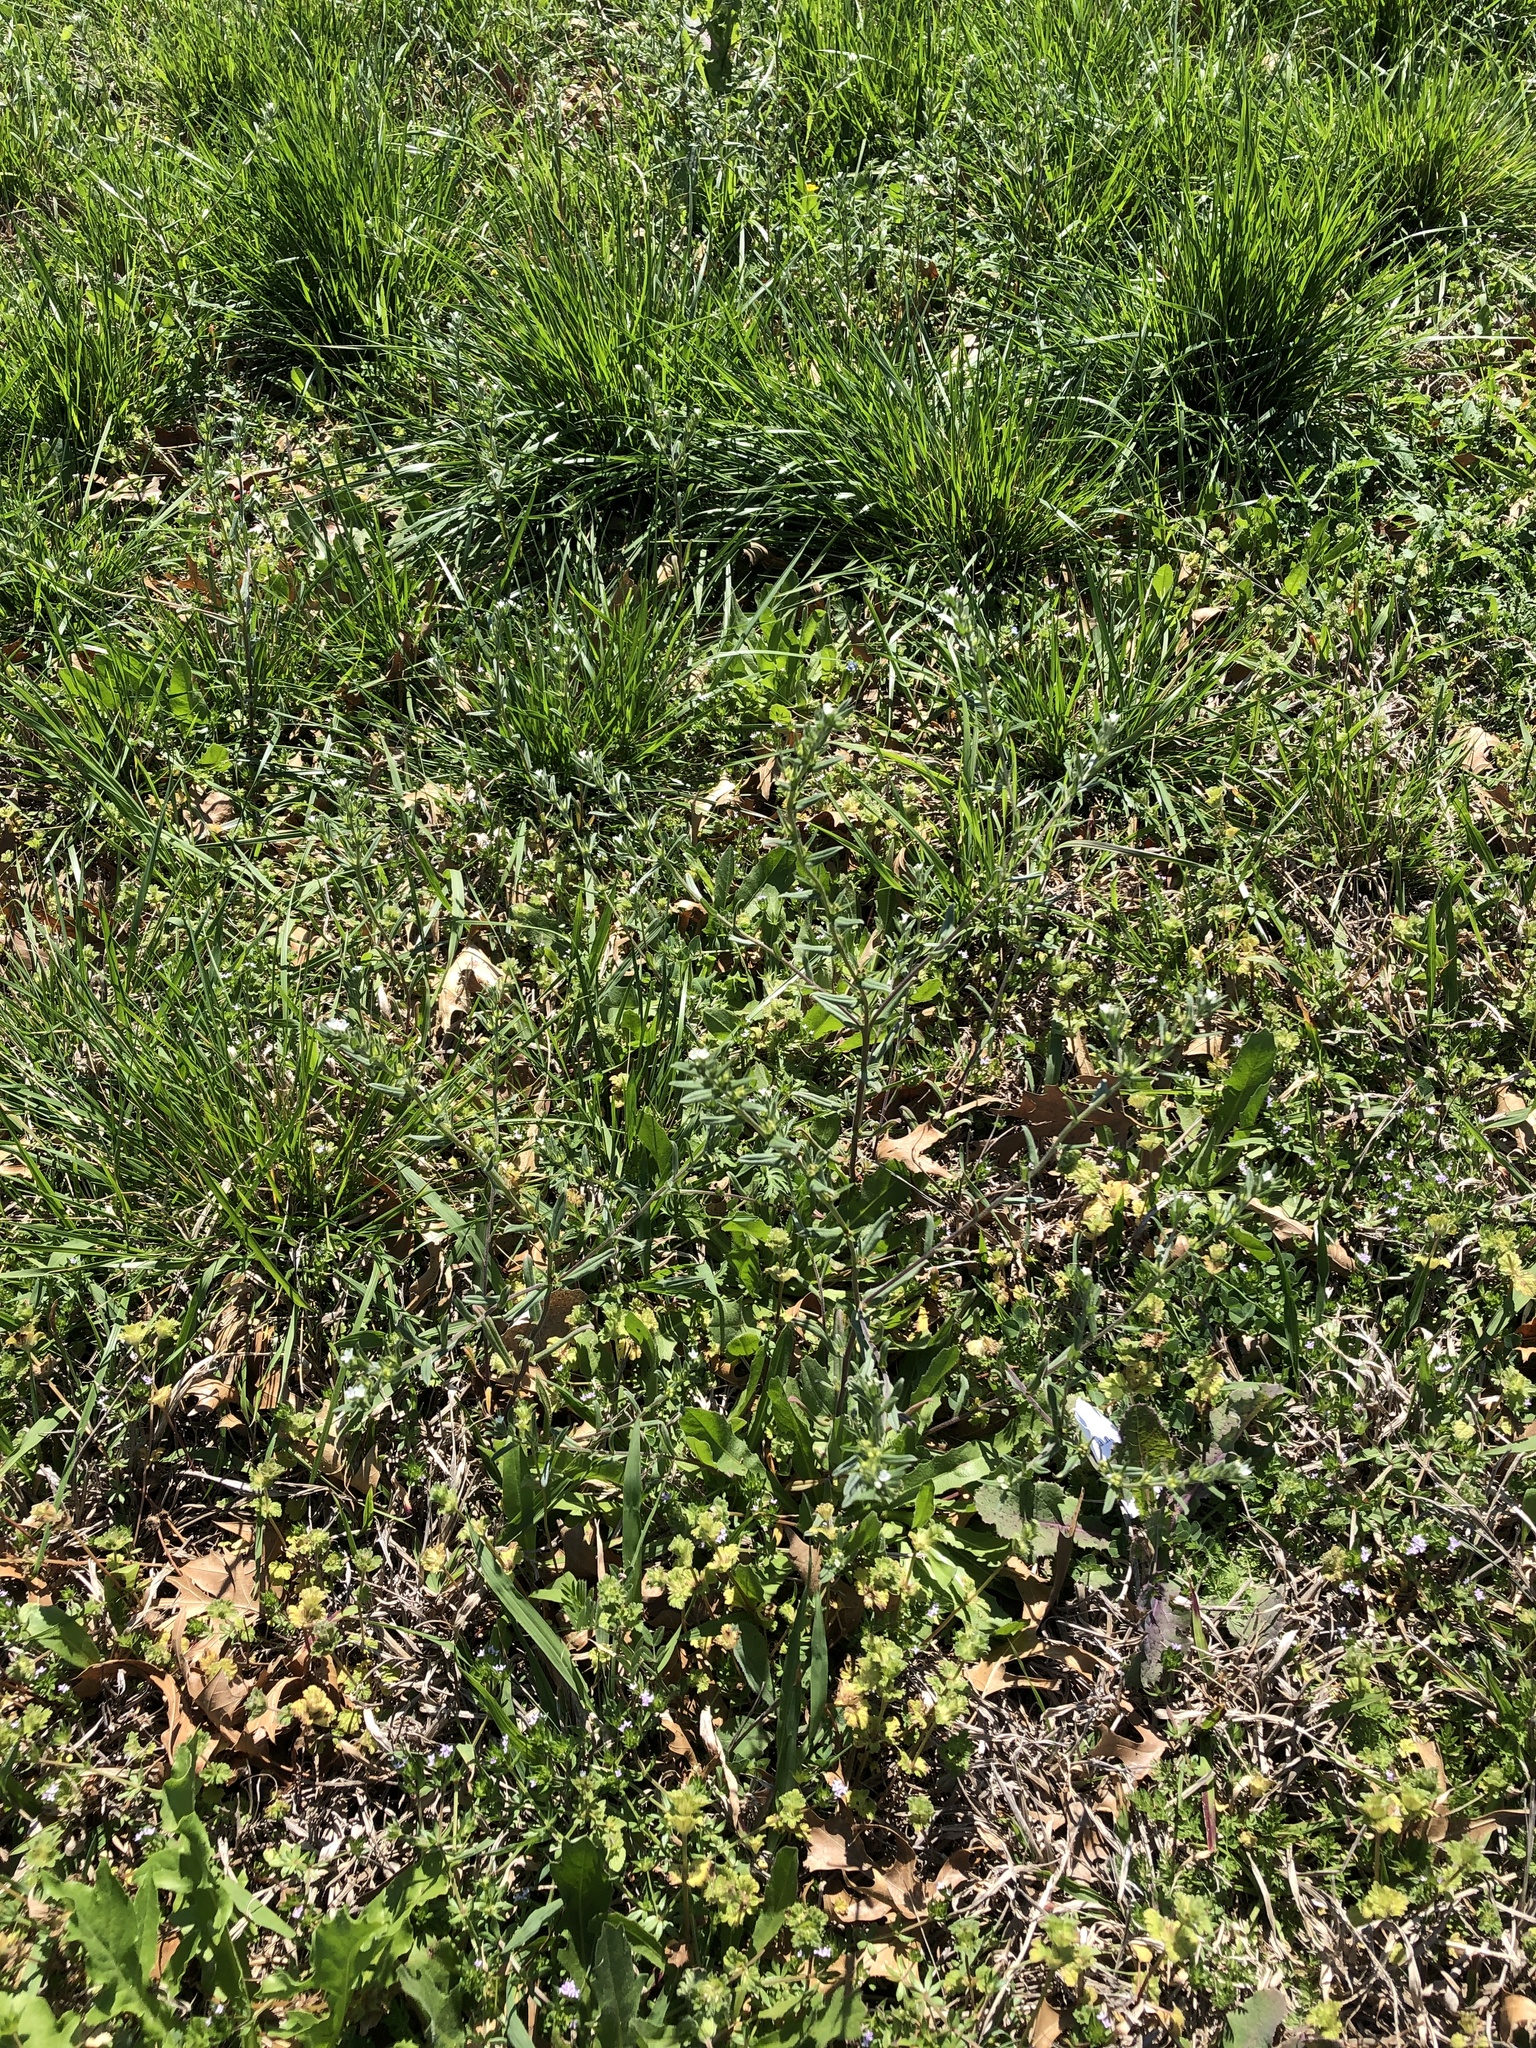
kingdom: Plantae
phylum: Tracheophyta
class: Magnoliopsida
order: Boraginales
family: Boraginaceae
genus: Buglossoides
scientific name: Buglossoides arvensis
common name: Corn gromwell
